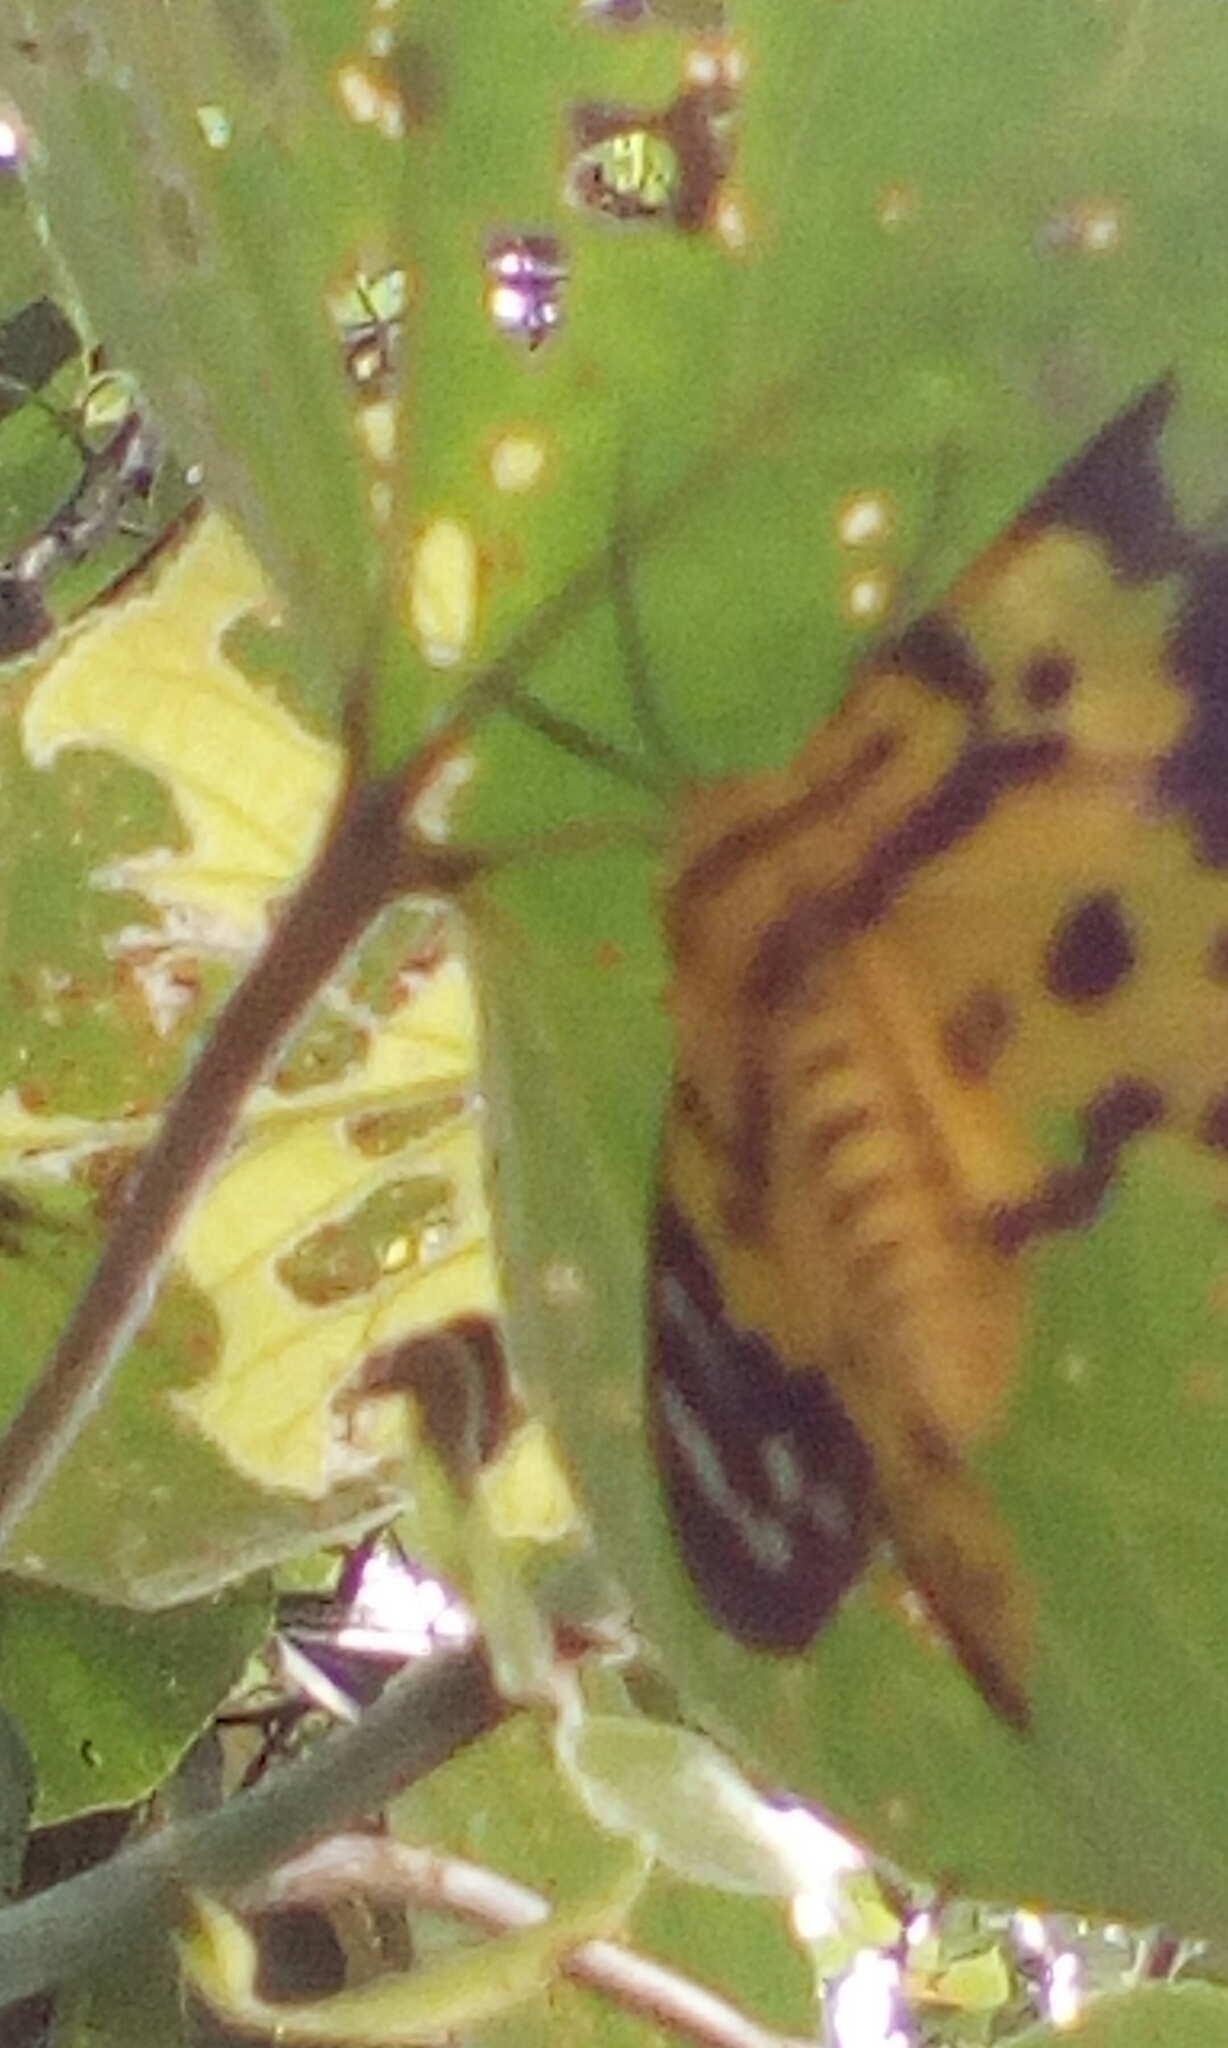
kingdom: Animalia
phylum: Arthropoda
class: Insecta
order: Lepidoptera
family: Geometridae
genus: Dysphania
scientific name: Dysphania militaris
